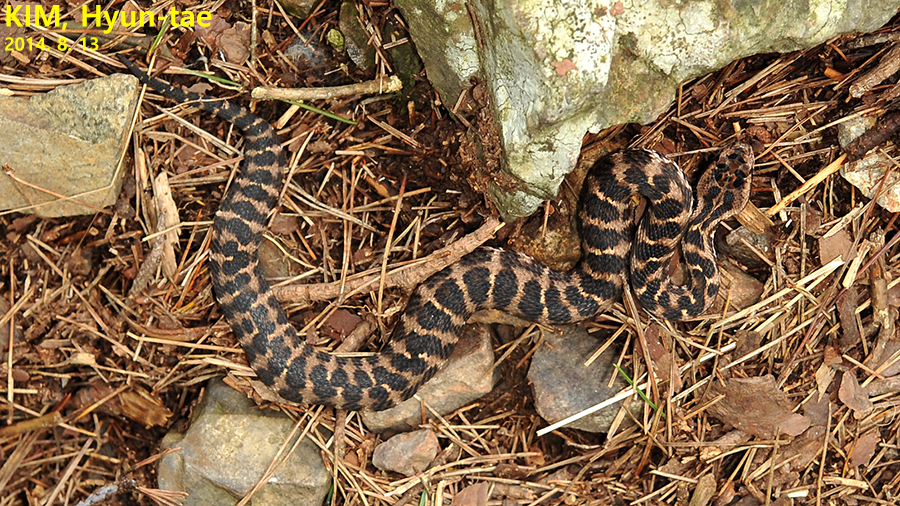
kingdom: Animalia
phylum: Chordata
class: Squamata
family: Viperidae
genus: Gloydius
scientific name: Gloydius intermedius
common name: Central asian pit viper
